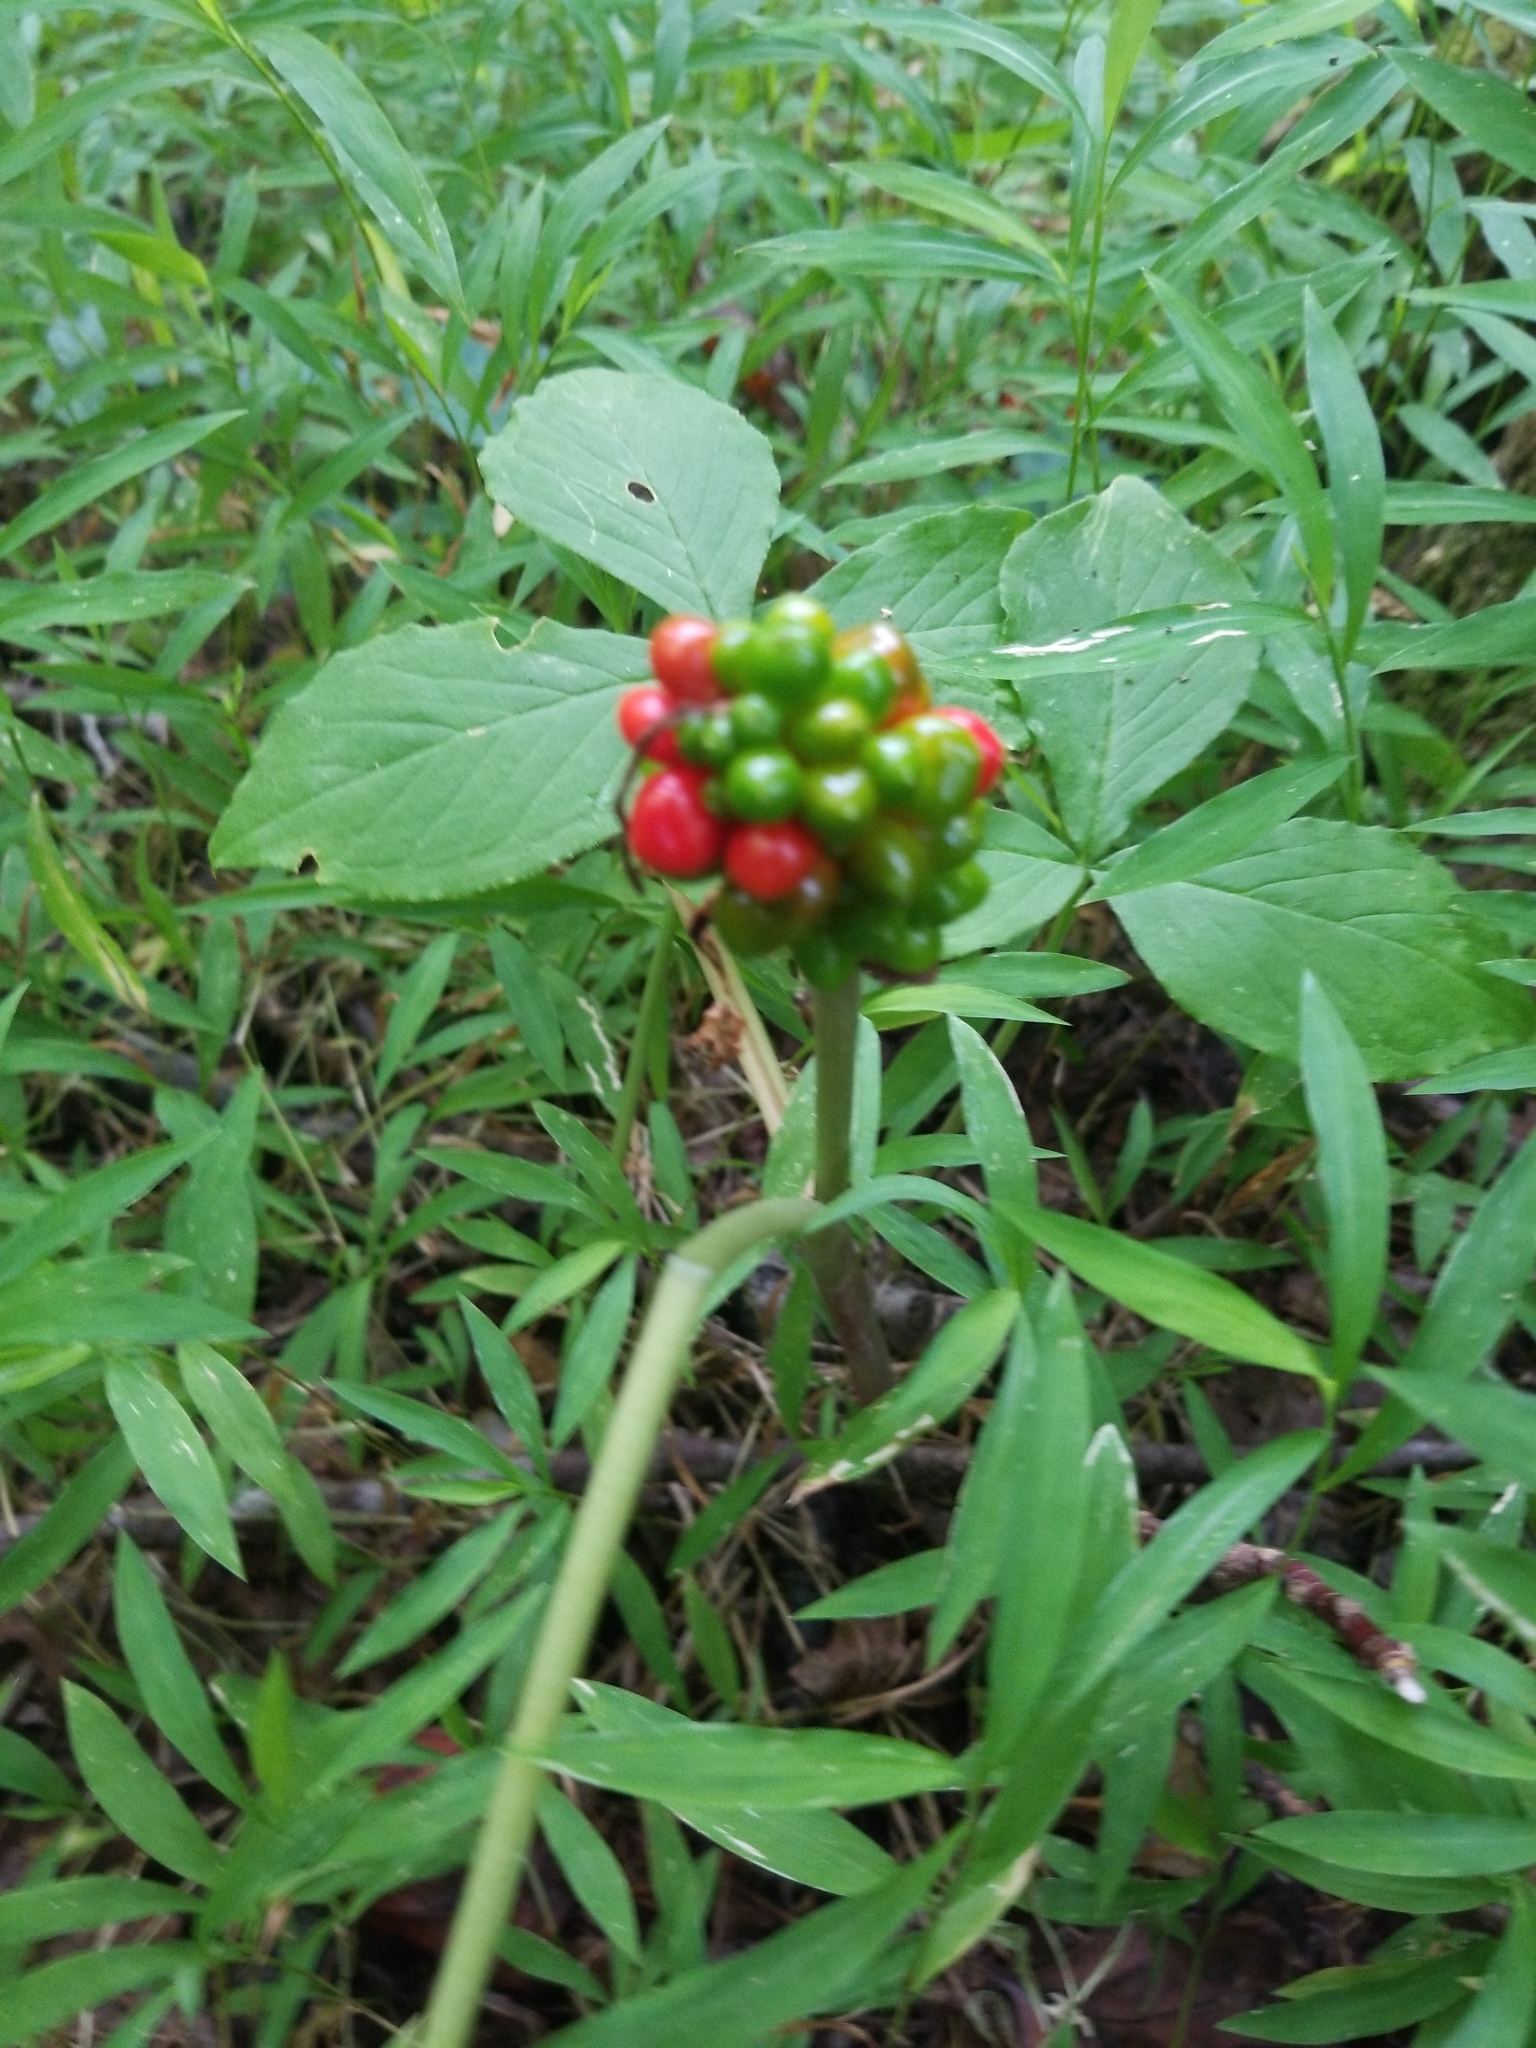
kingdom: Plantae
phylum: Tracheophyta
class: Liliopsida
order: Alismatales
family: Araceae
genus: Arisaema
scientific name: Arisaema triphyllum
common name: Jack-in-the-pulpit
